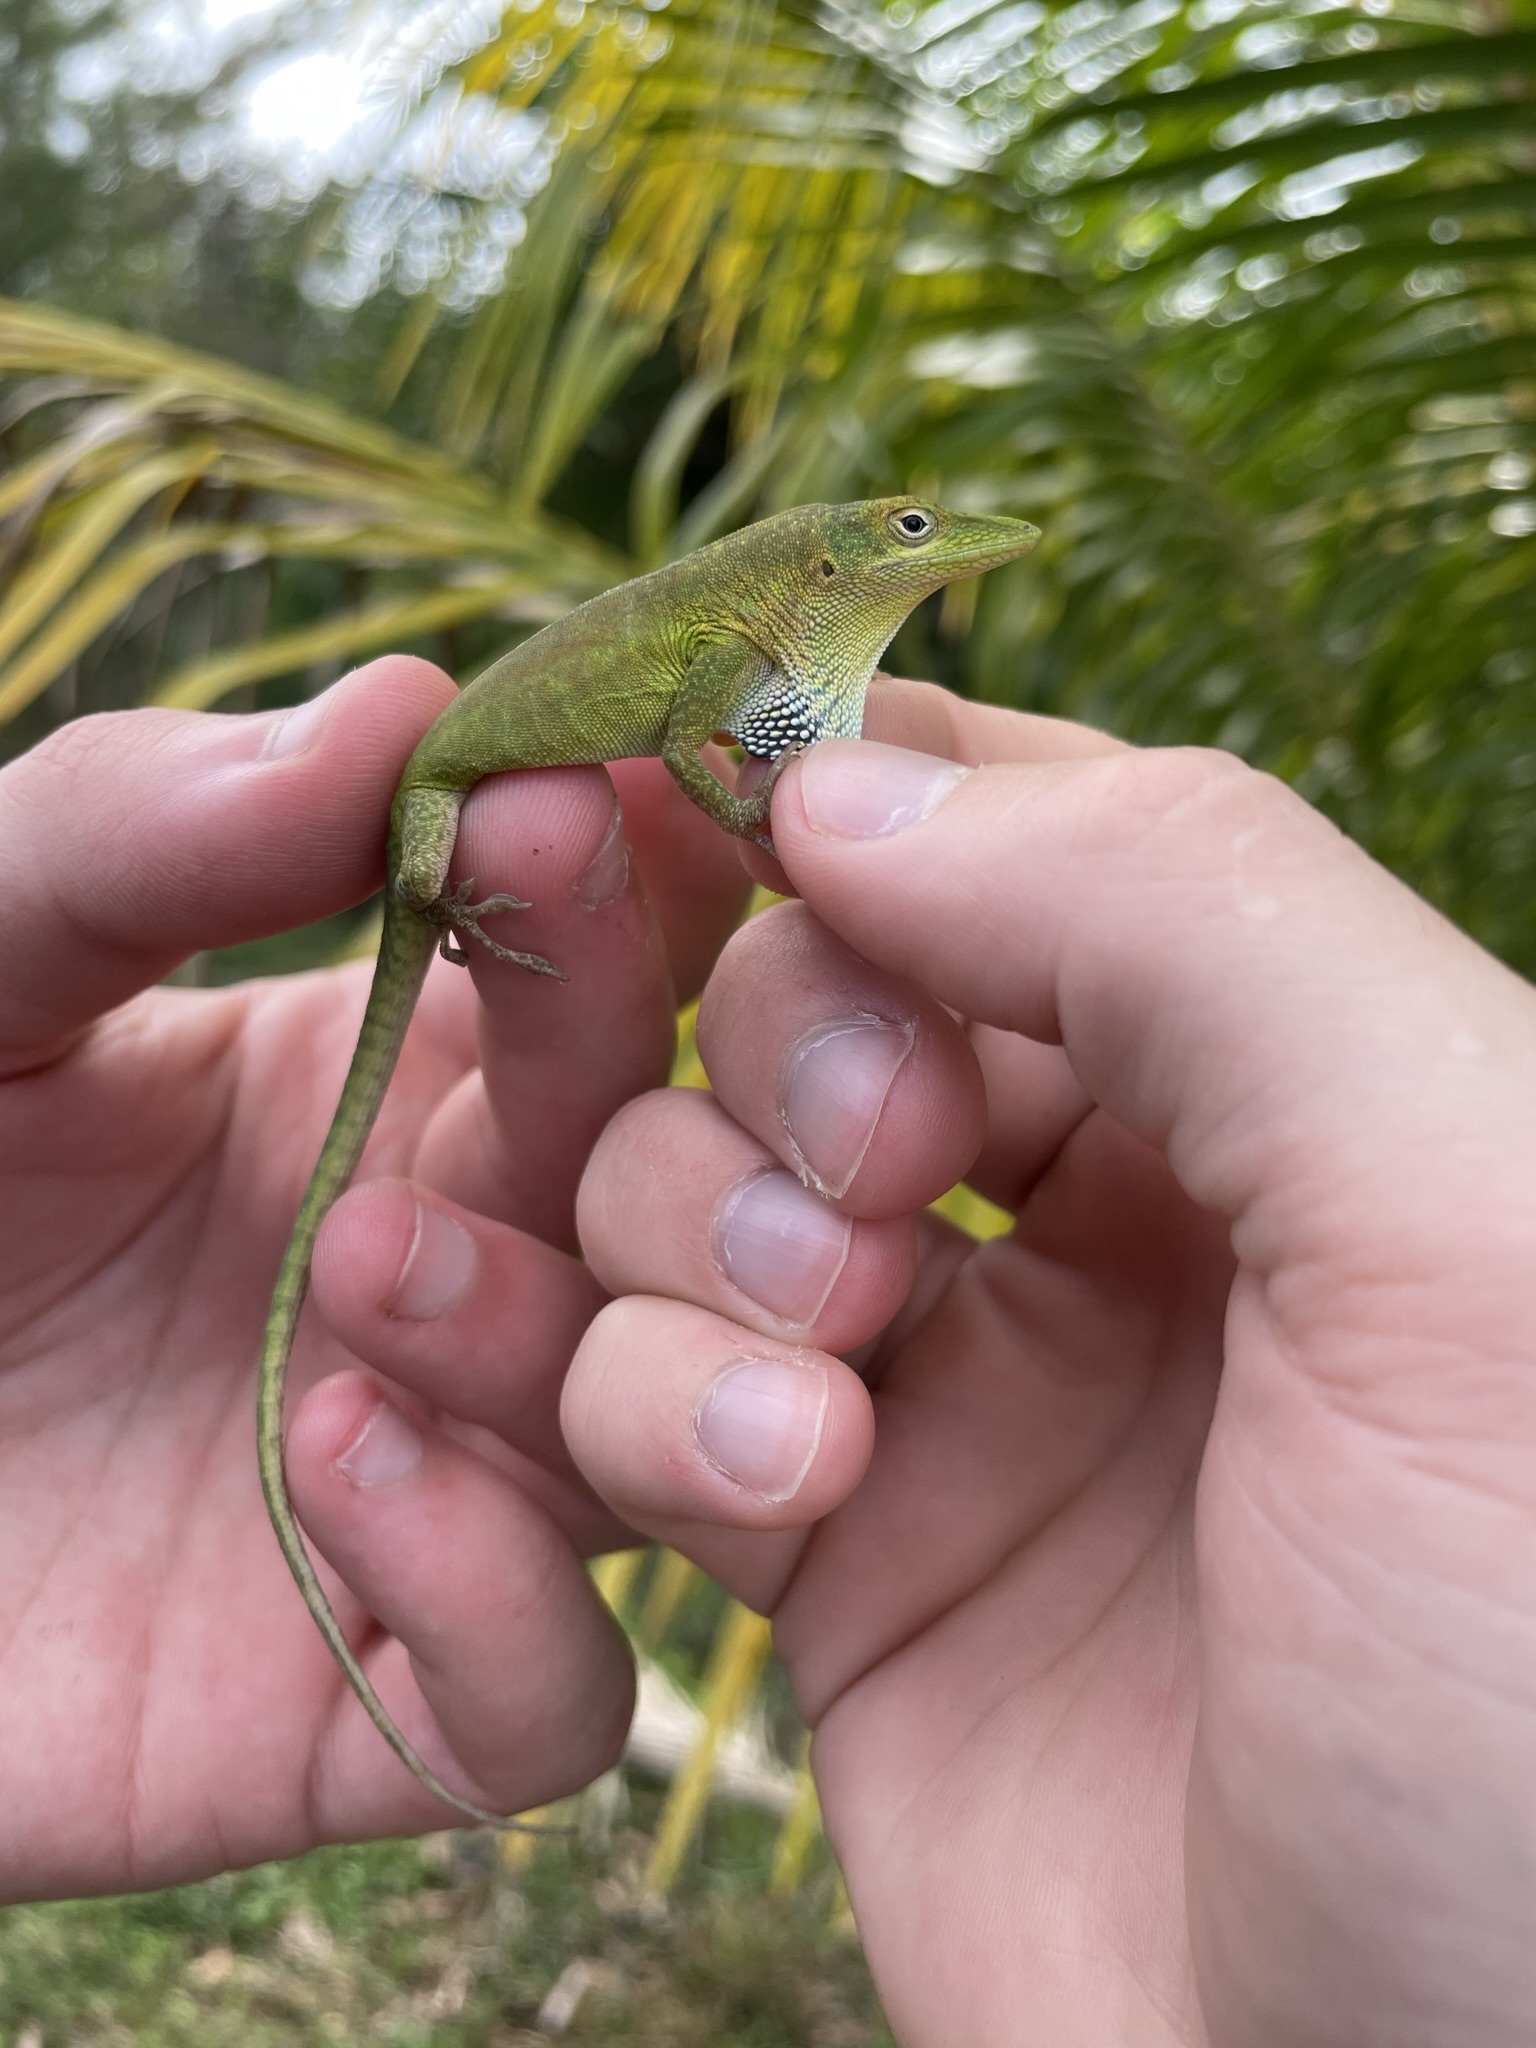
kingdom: Animalia
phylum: Chordata
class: Squamata
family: Dactyloidae
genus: Anolis
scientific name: Anolis chlorocyanus
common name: Hispaniolan green anole
